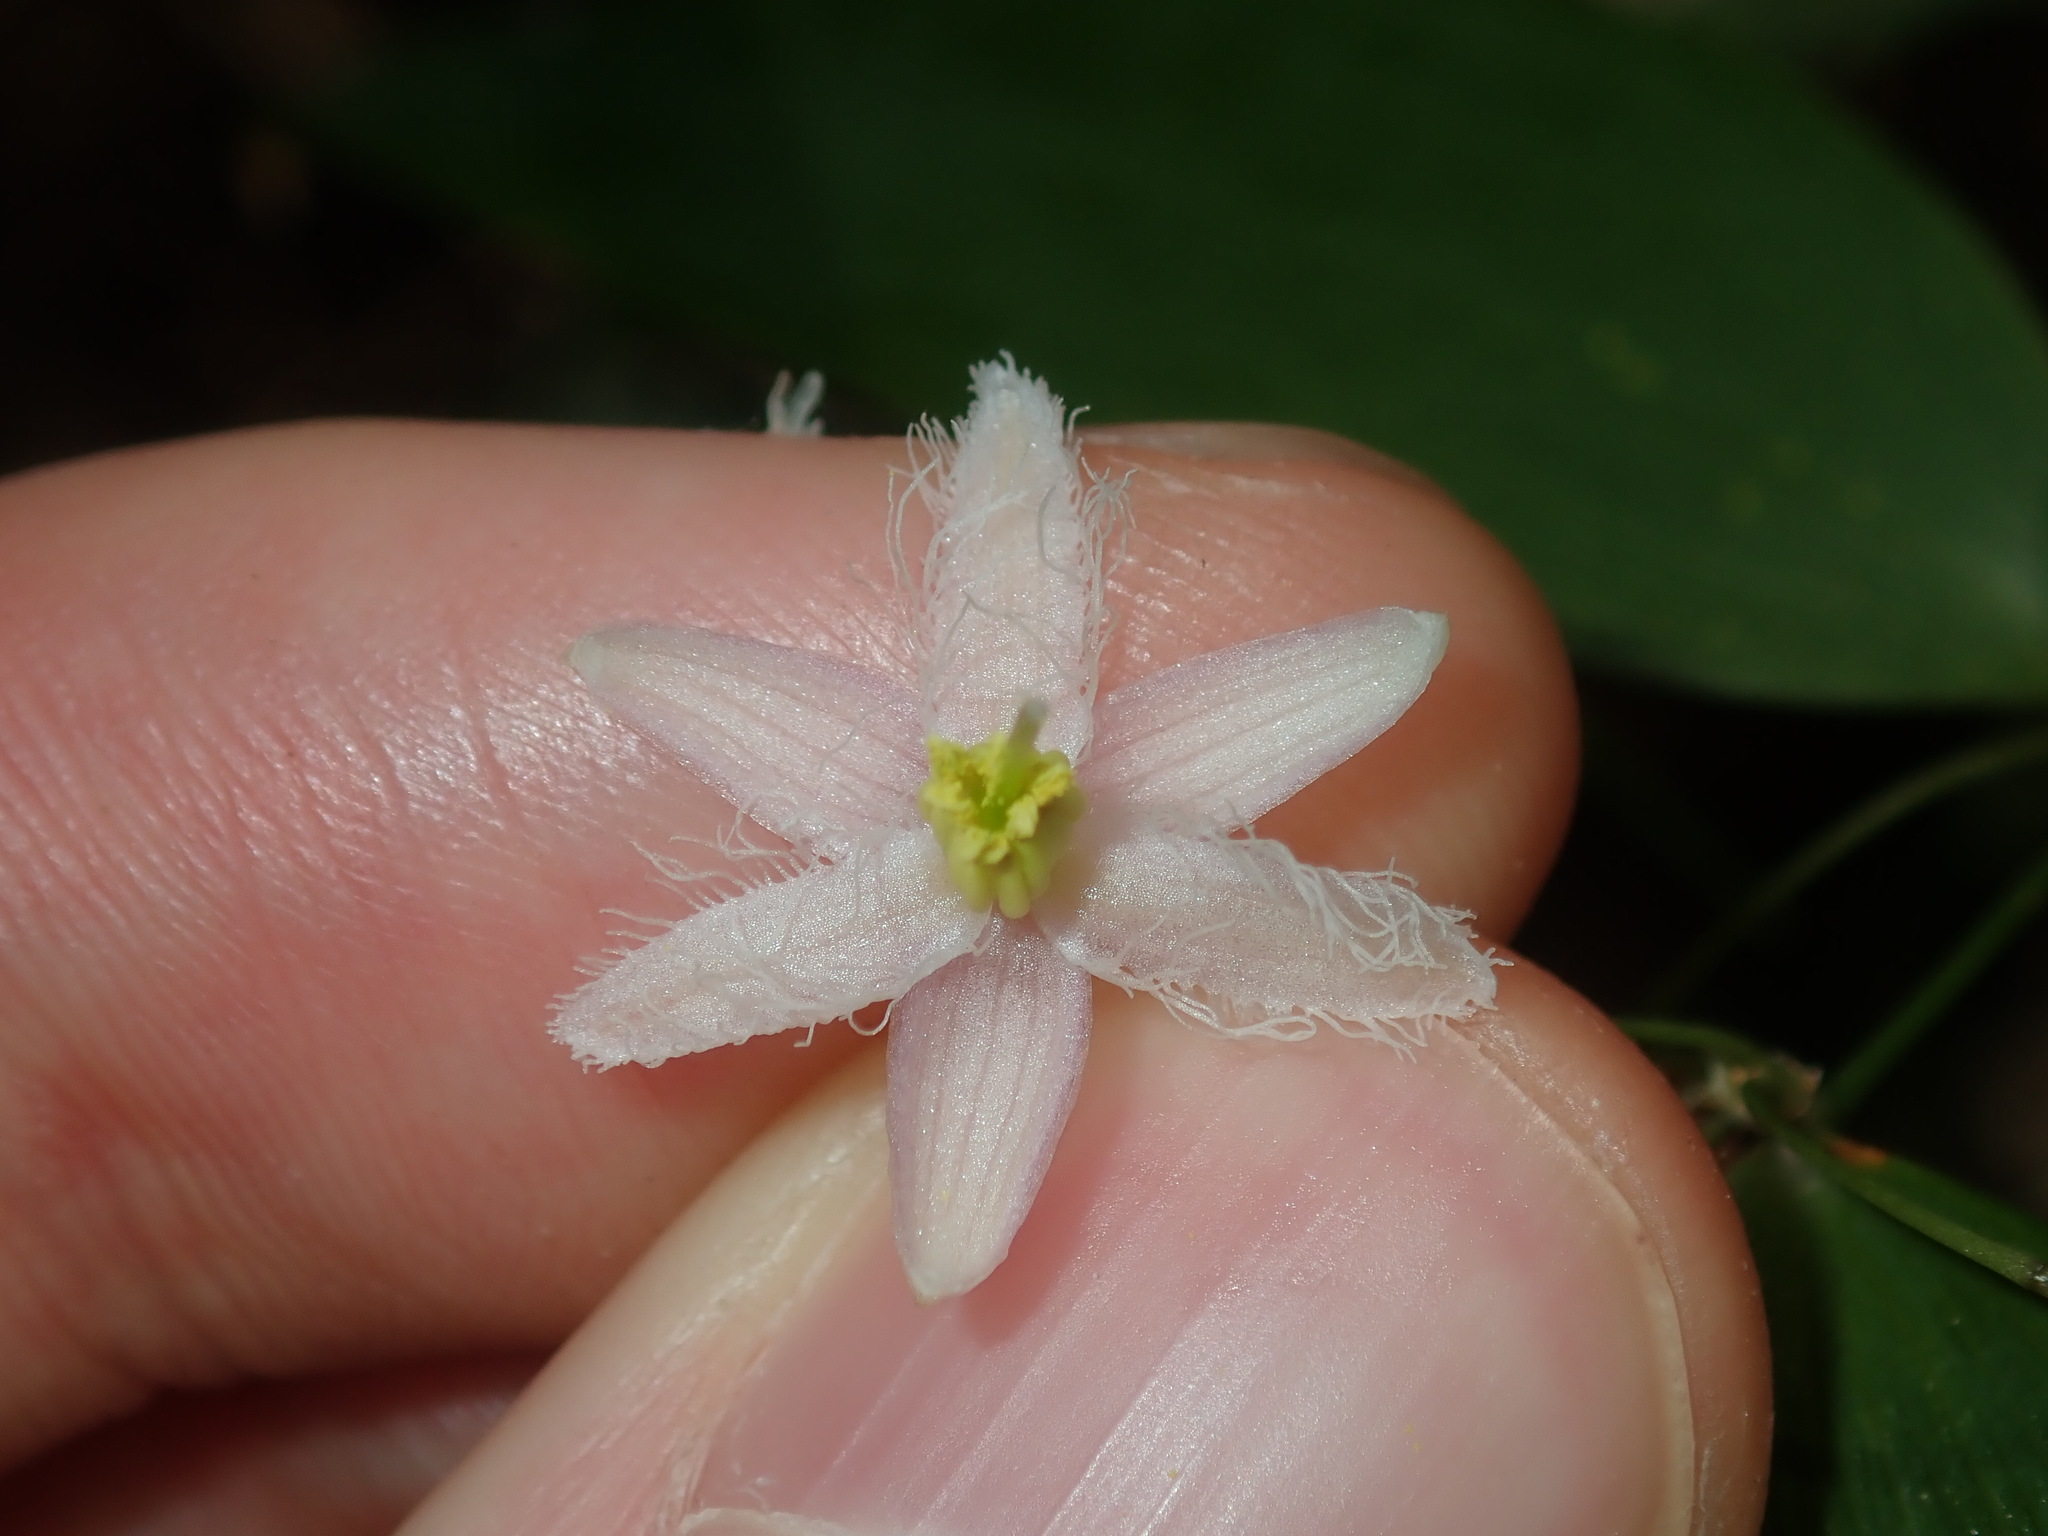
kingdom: Plantae
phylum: Tracheophyta
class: Liliopsida
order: Asparagales
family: Asparagaceae
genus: Eustrephus
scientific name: Eustrephus latifolius
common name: Orangevine
